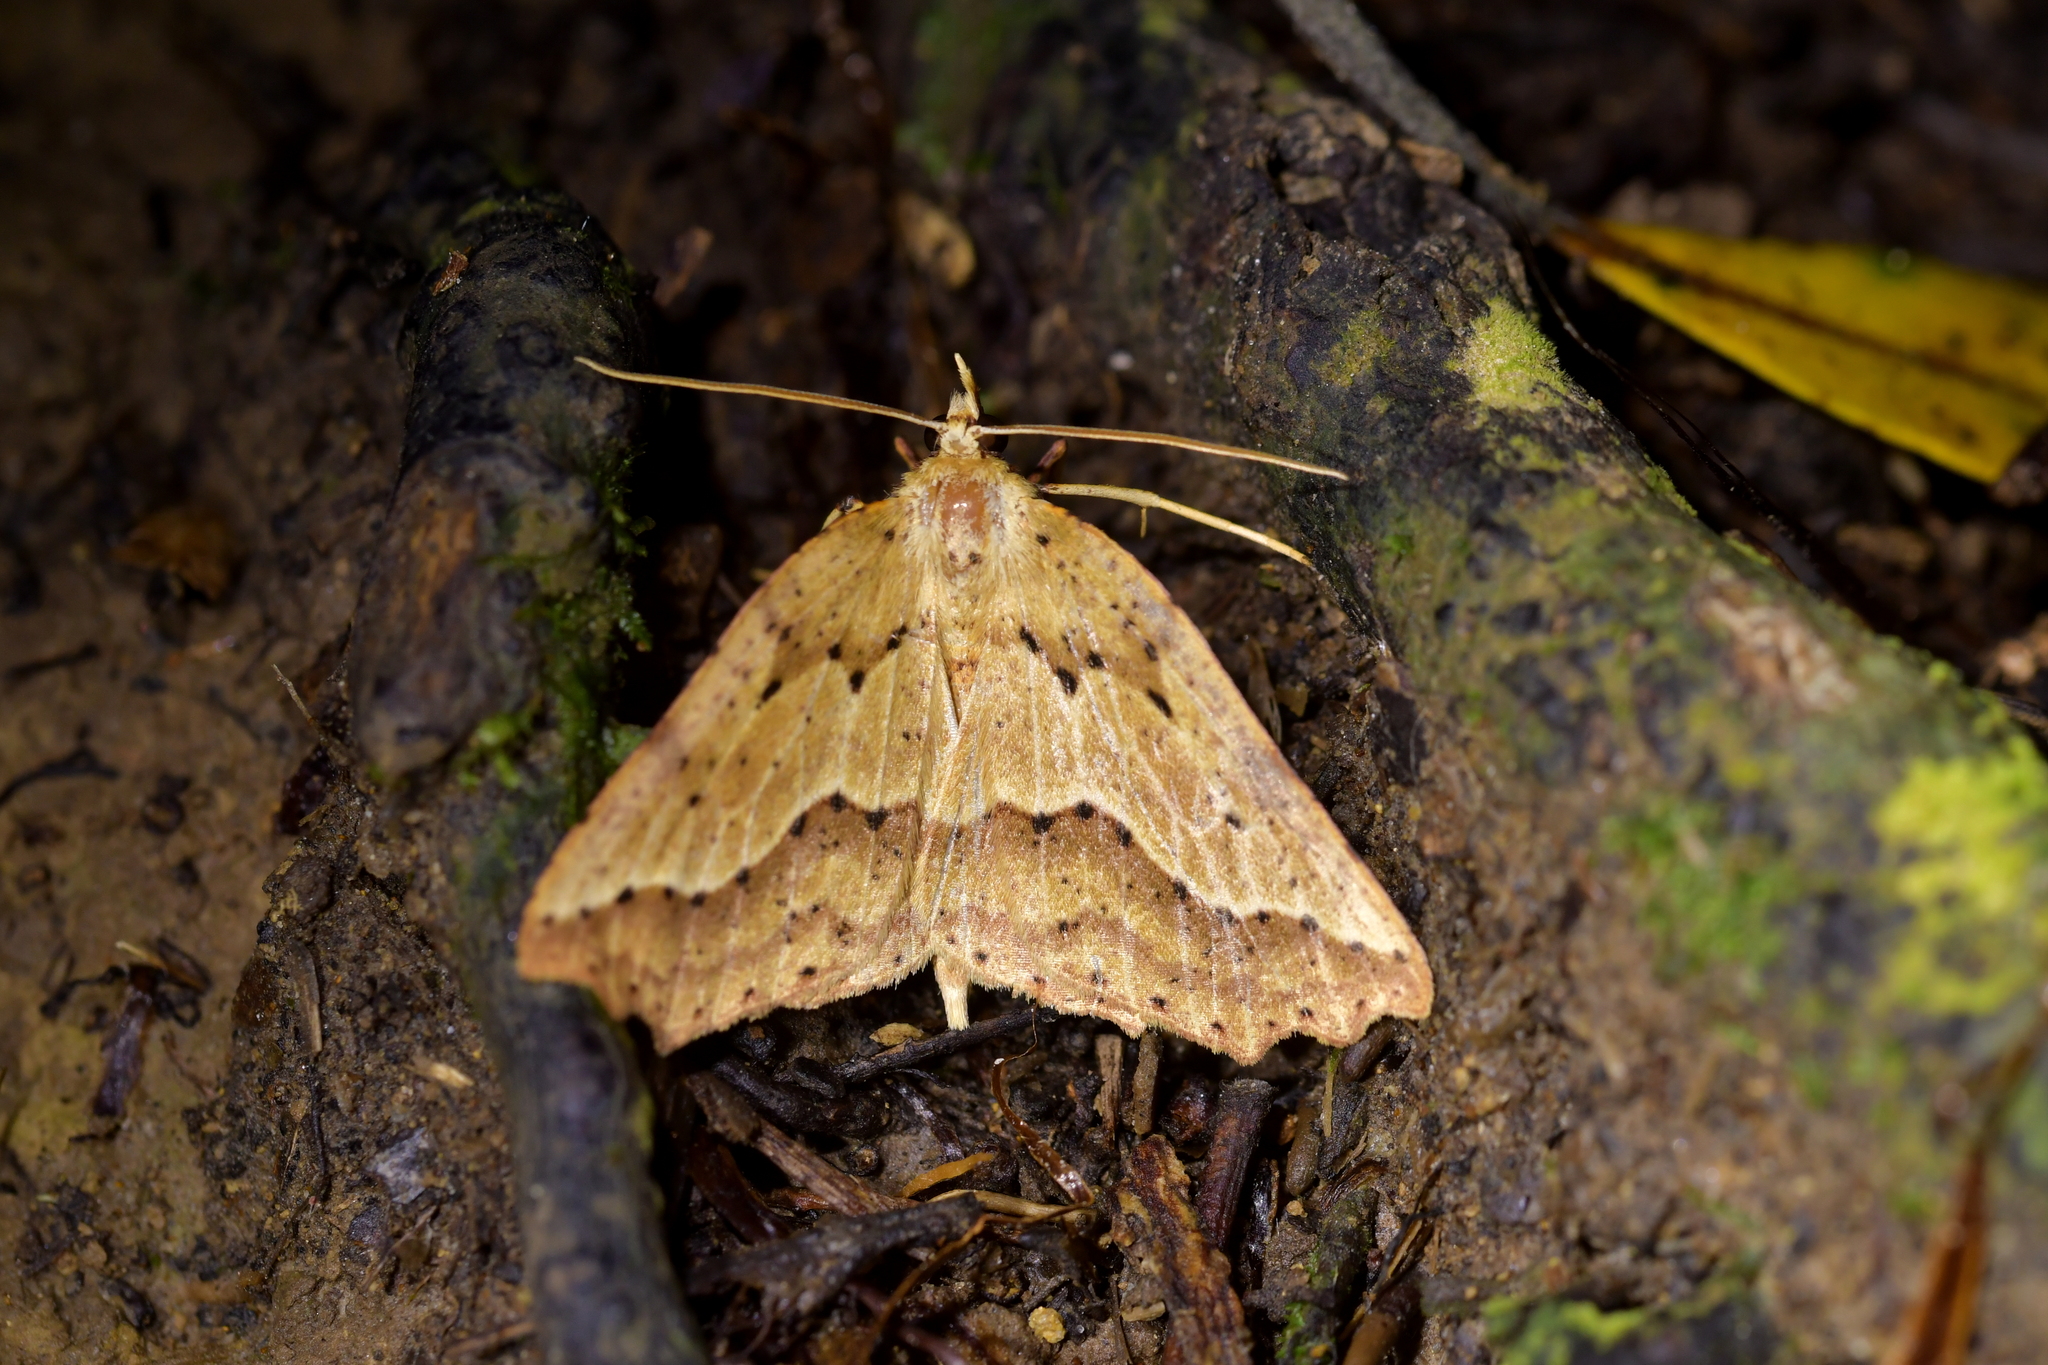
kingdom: Animalia
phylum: Arthropoda
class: Insecta
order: Lepidoptera
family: Geometridae
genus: Ischalis
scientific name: Ischalis variabilis
